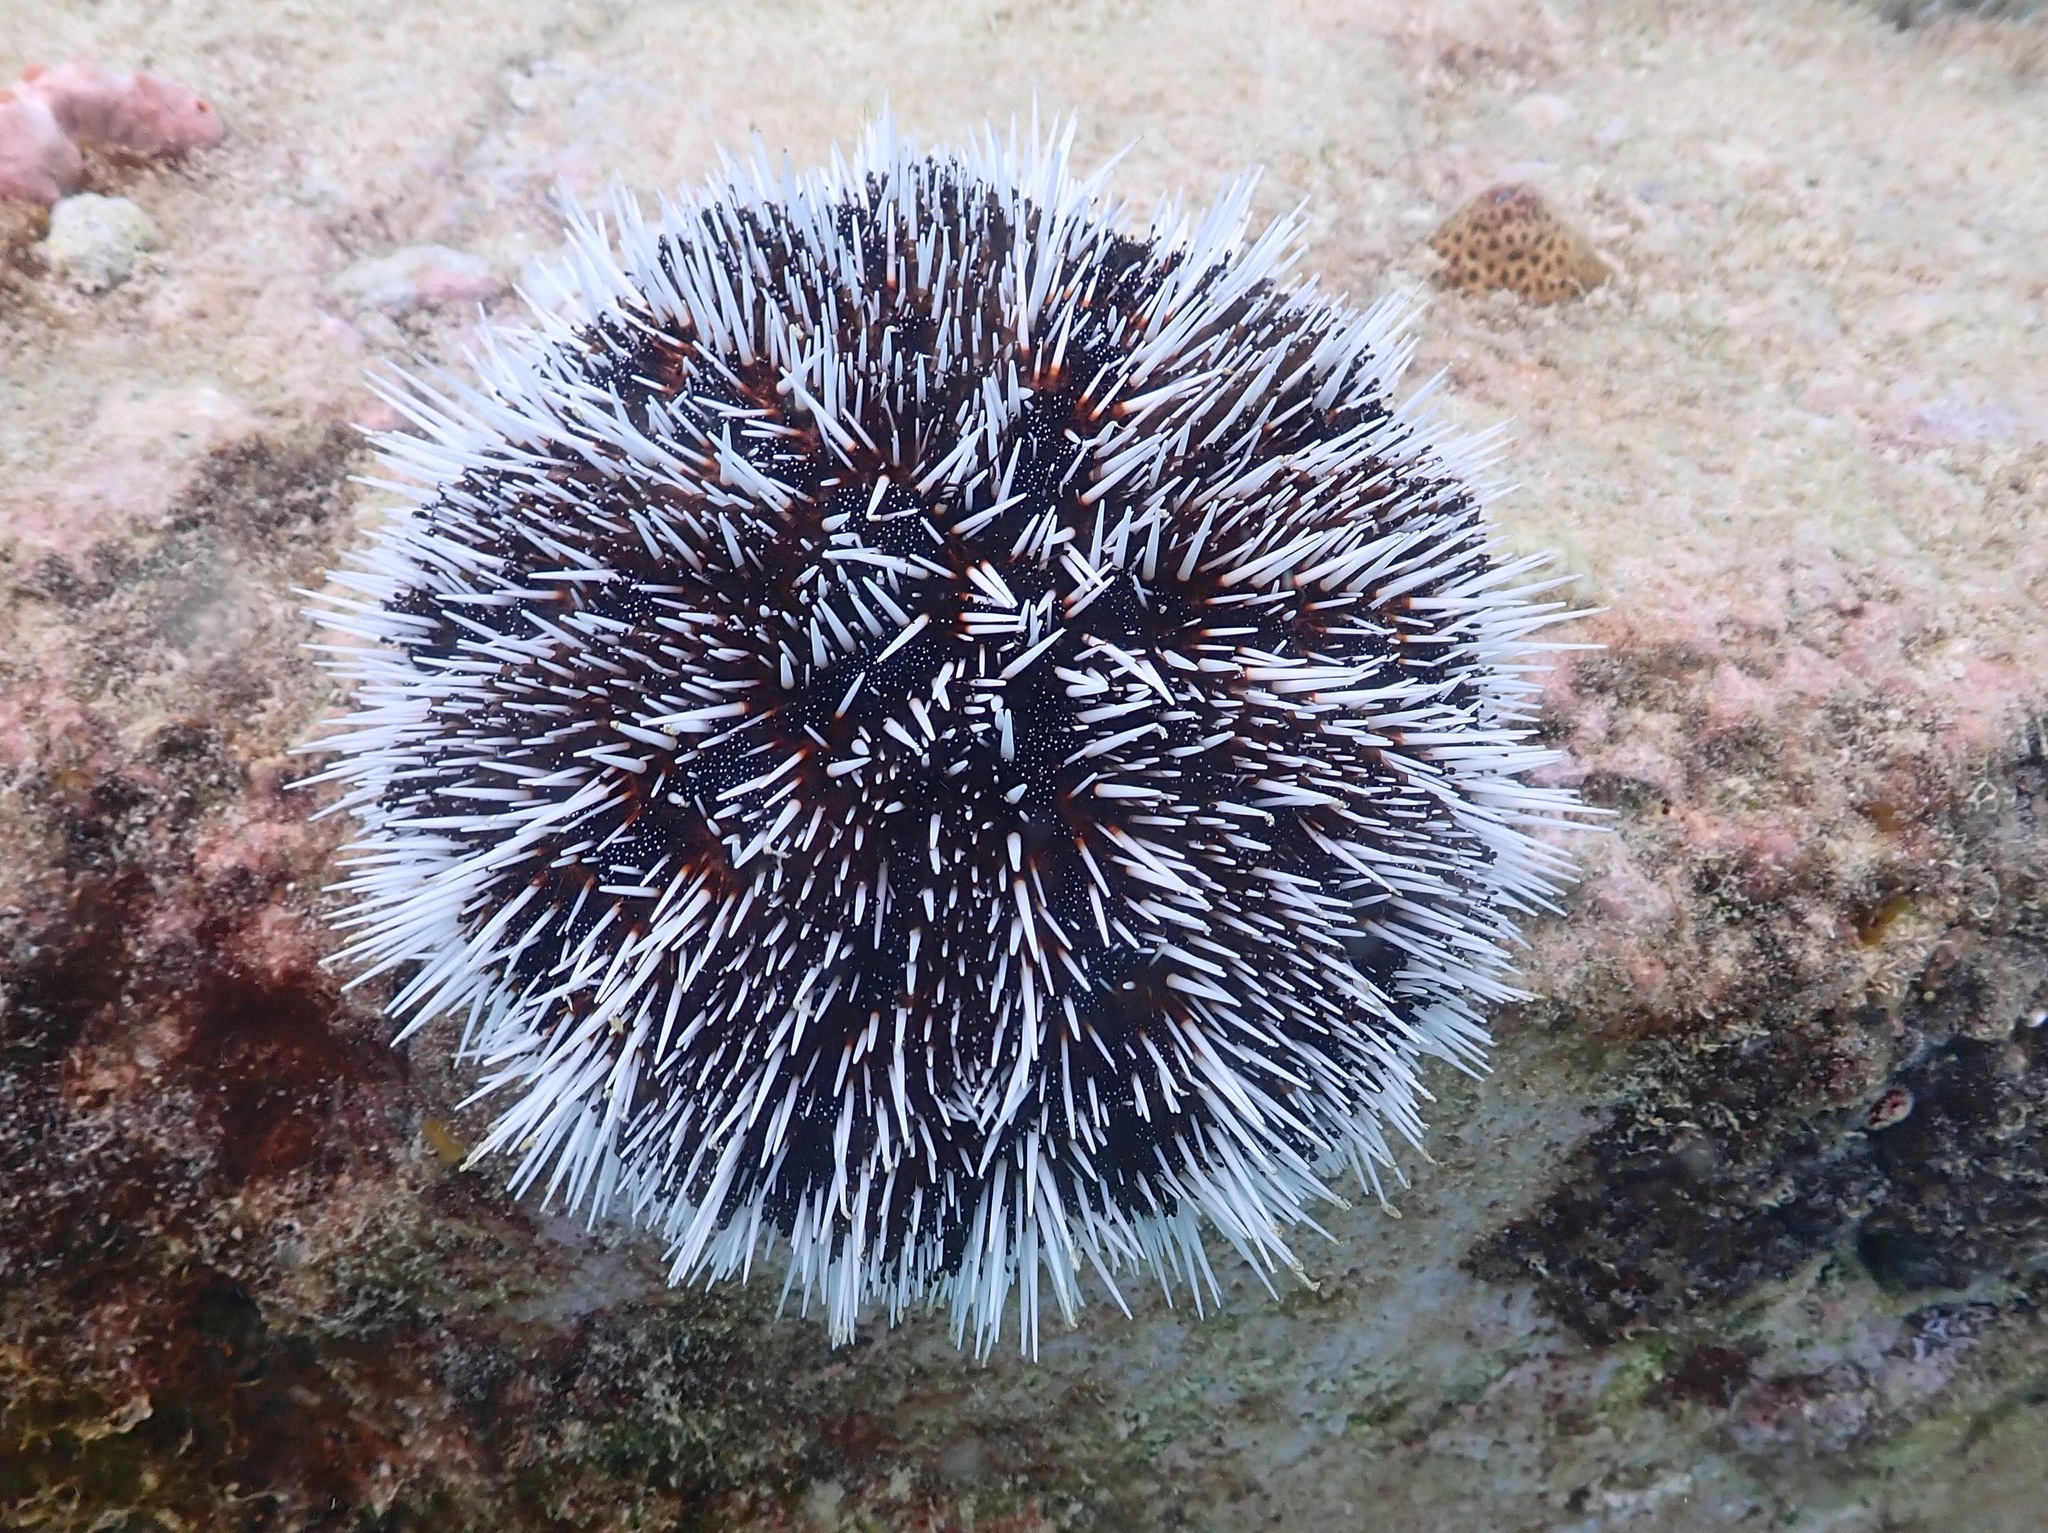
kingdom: Animalia
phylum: Echinodermata
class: Echinoidea
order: Camarodonta
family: Toxopneustidae
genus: Tripneustes
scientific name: Tripneustes ventricosus
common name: West indian sea egg
